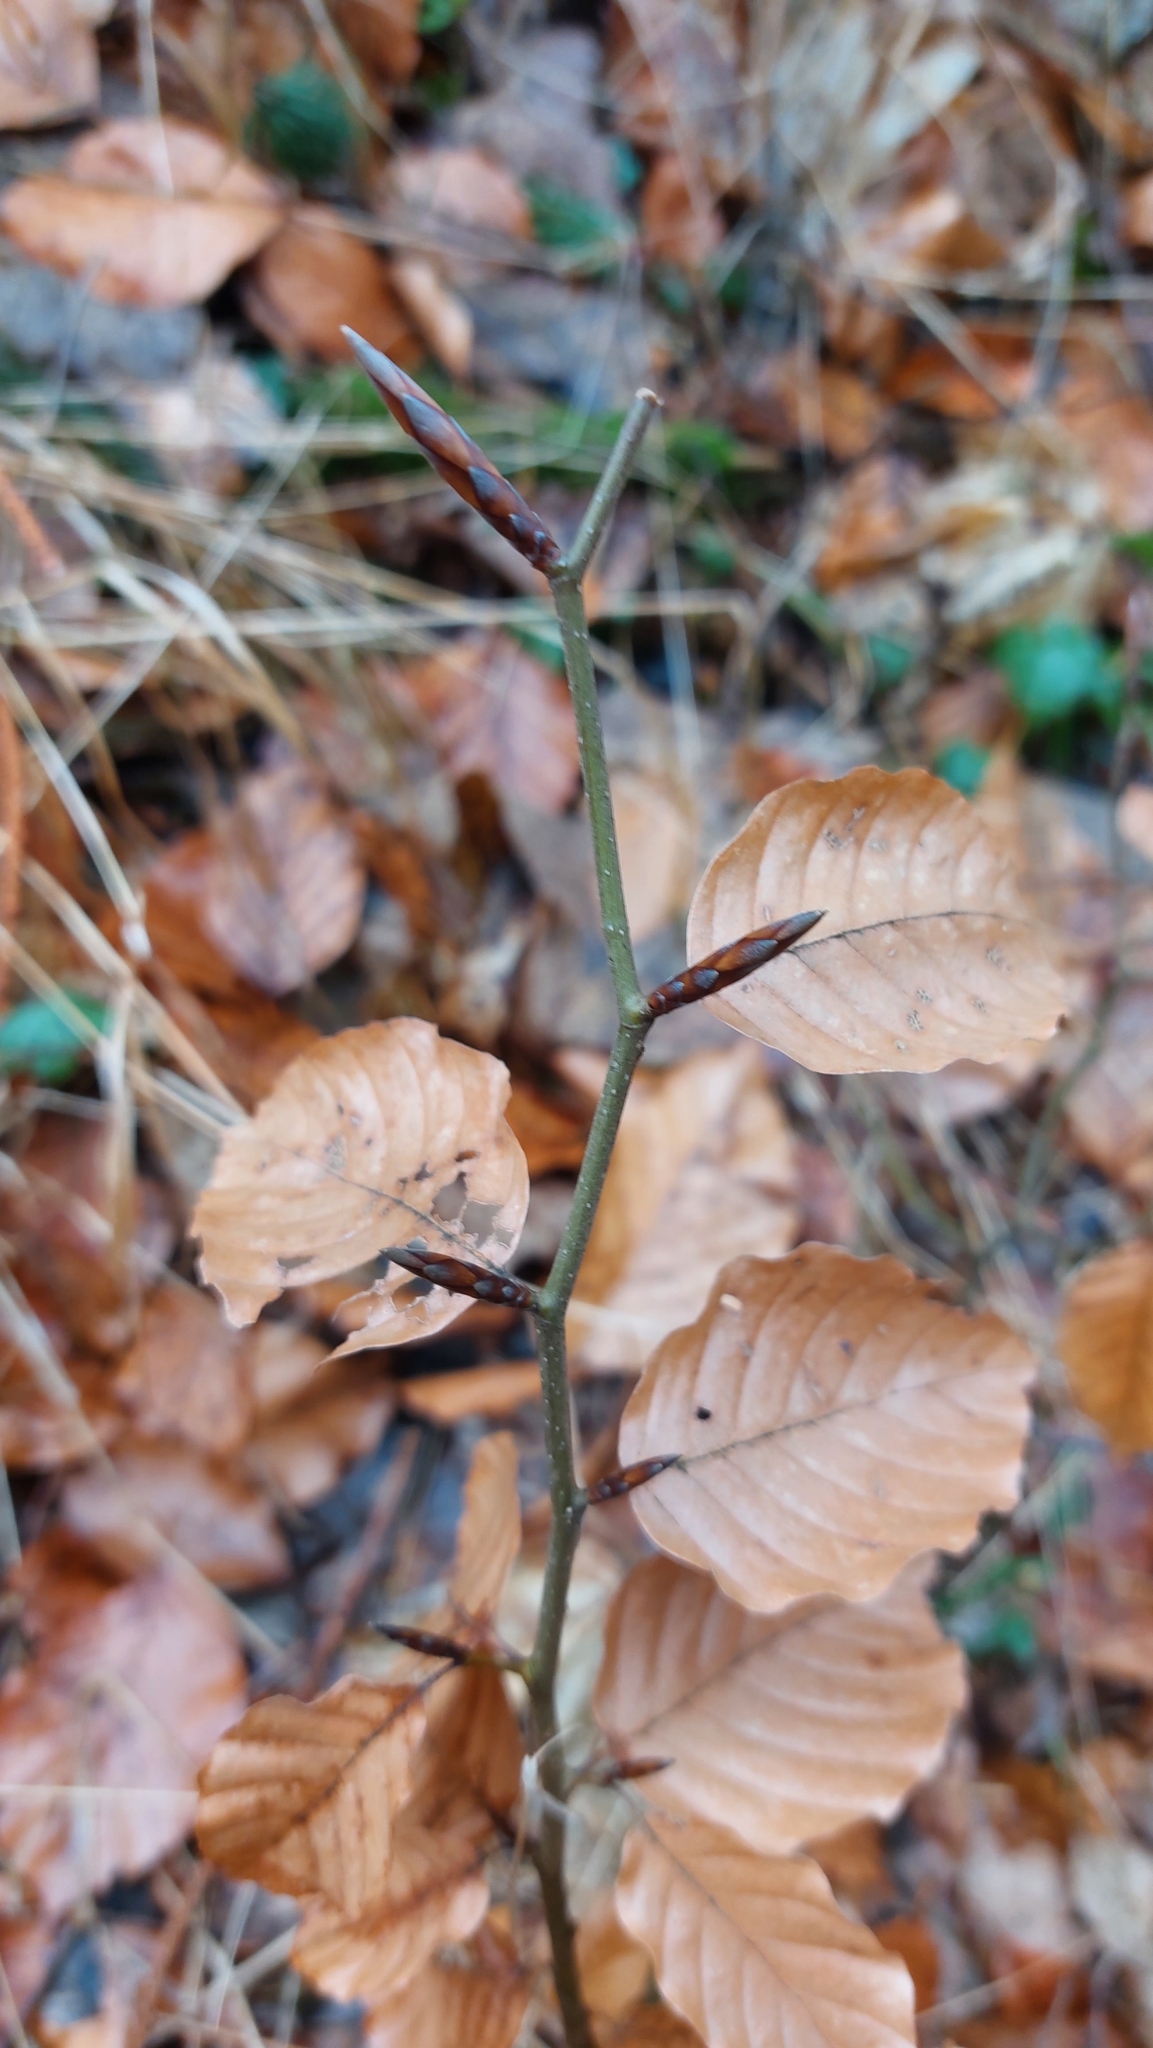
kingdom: Plantae
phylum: Tracheophyta
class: Magnoliopsida
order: Fagales
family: Fagaceae
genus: Fagus
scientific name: Fagus sylvatica
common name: Beech
